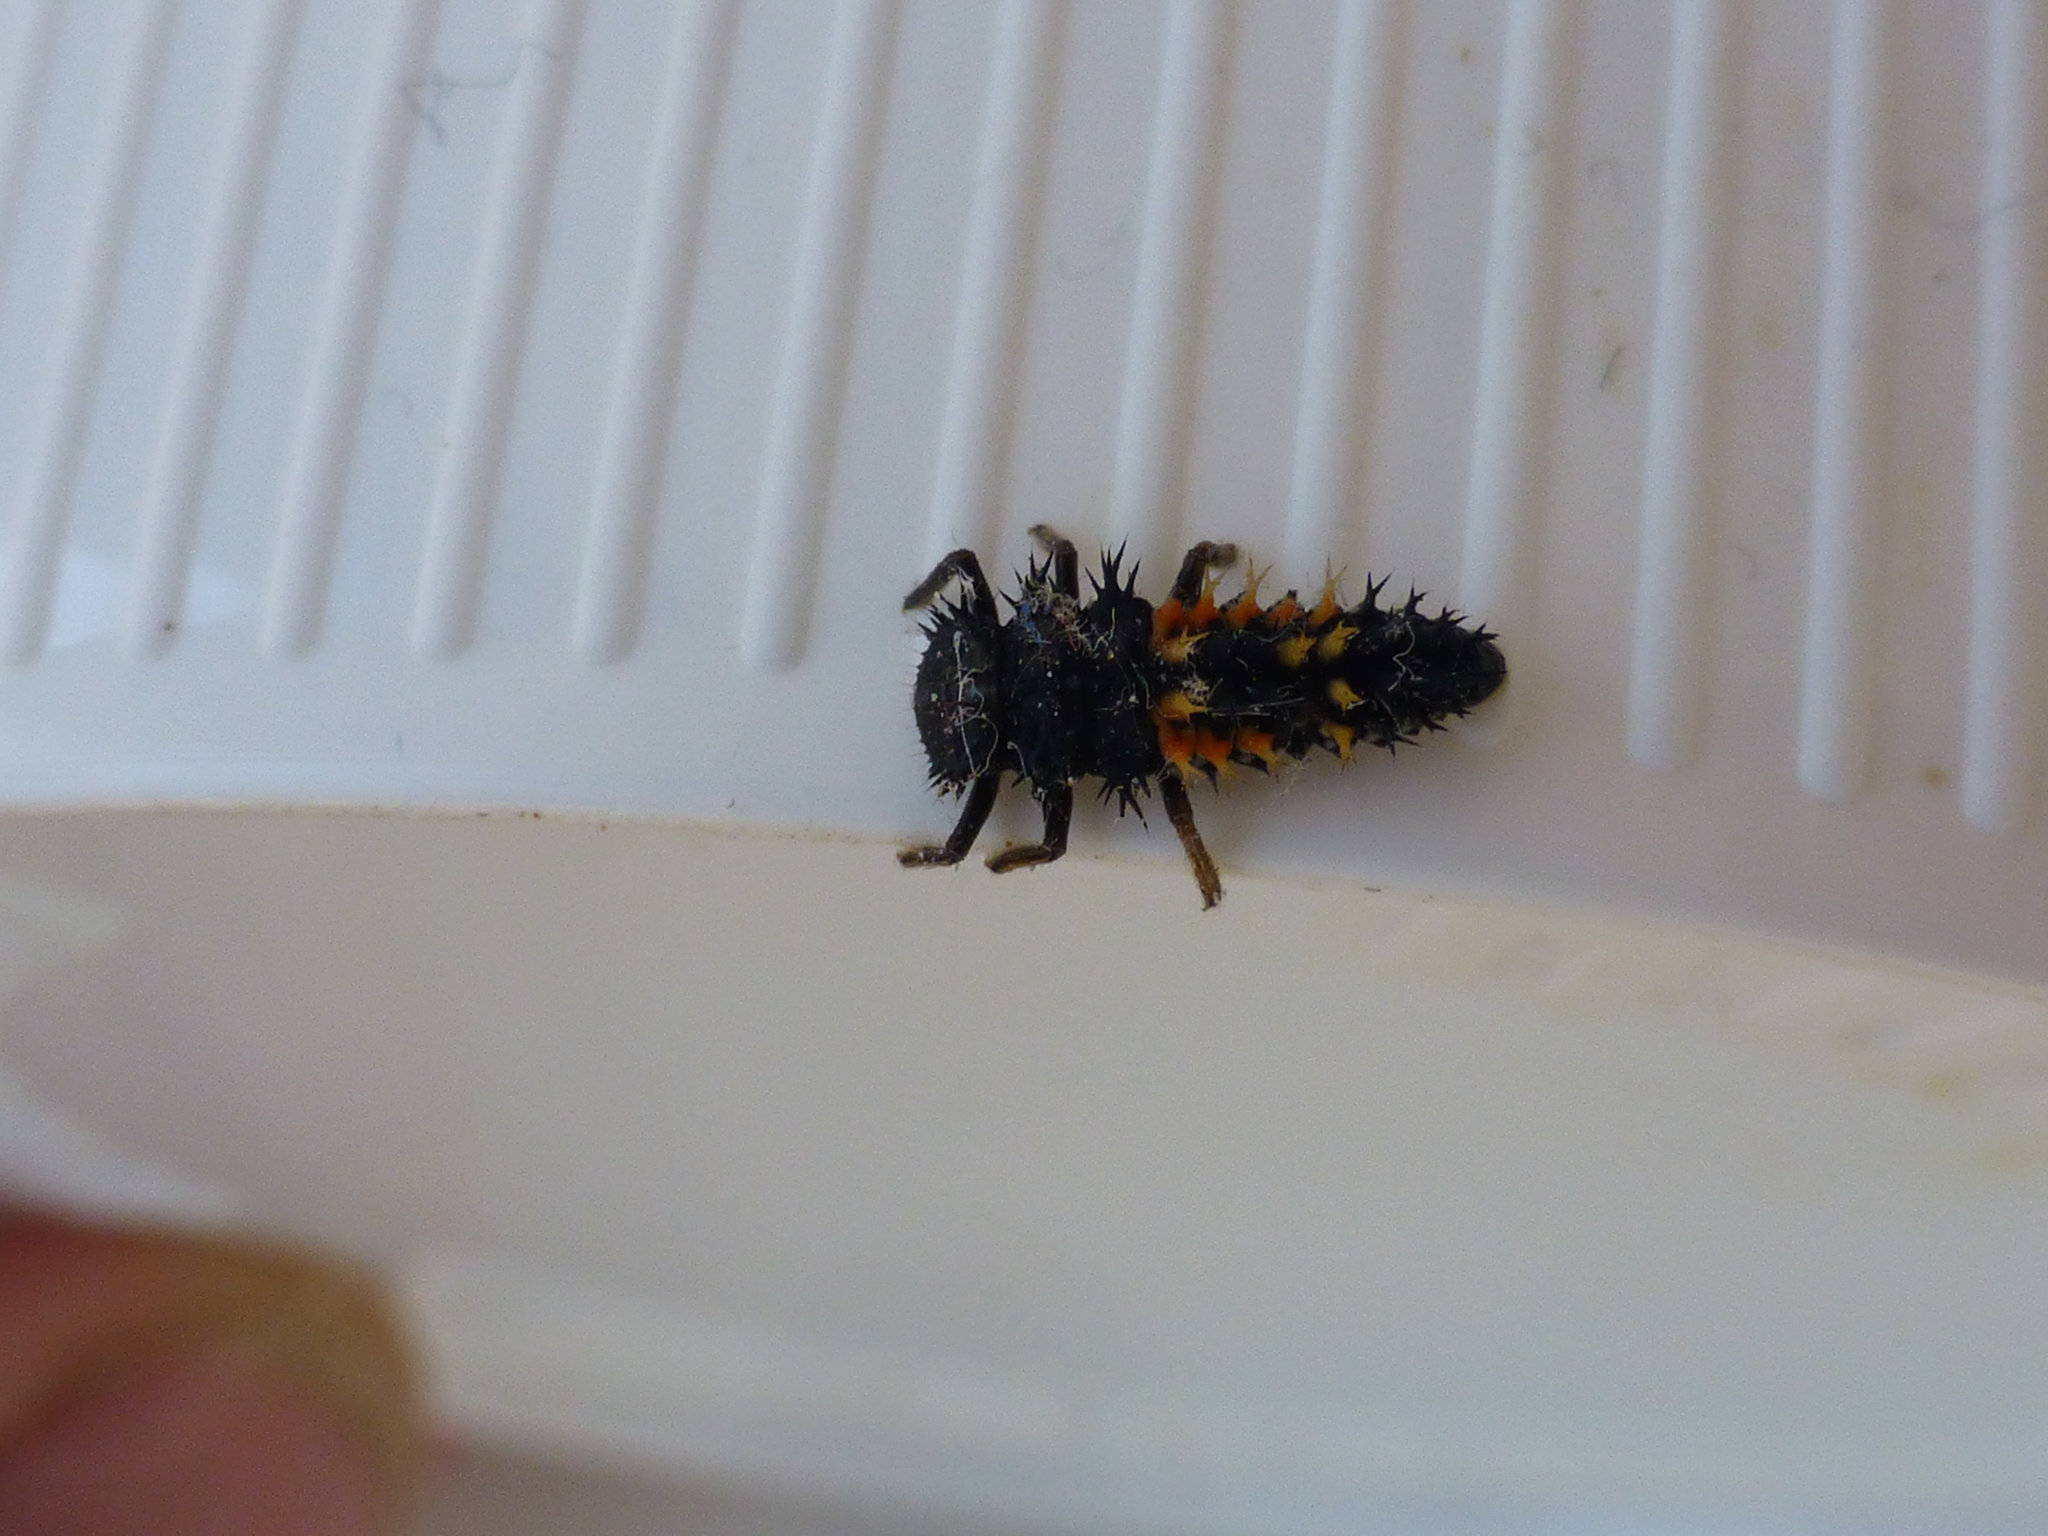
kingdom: Animalia
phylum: Arthropoda
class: Insecta
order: Coleoptera
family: Coccinellidae
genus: Harmonia
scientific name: Harmonia axyridis
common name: Harlequin ladybird
